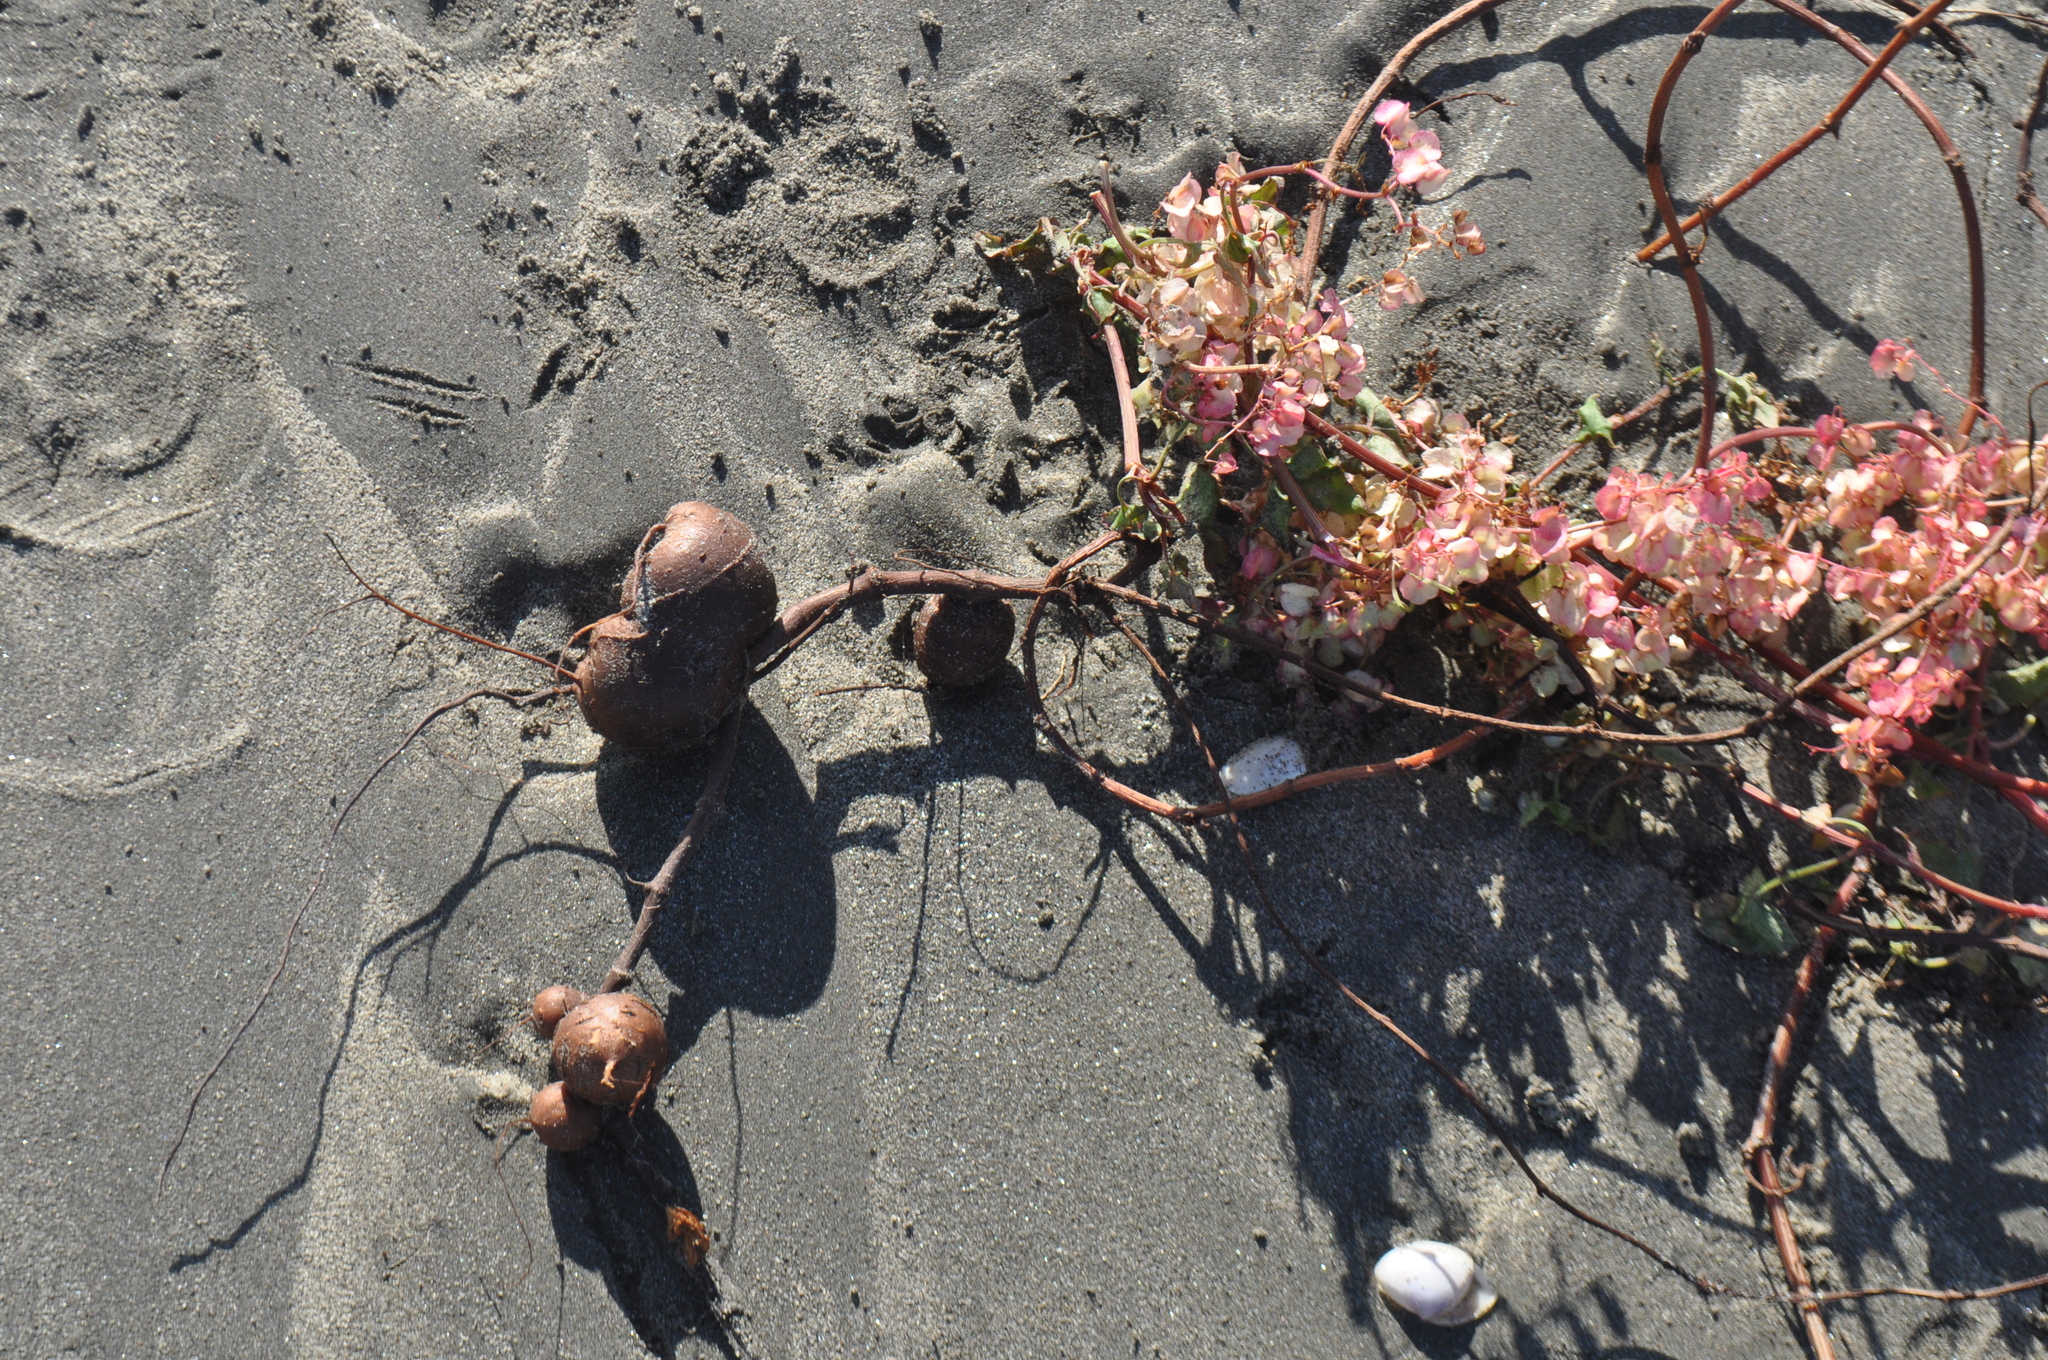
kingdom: Plantae
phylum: Tracheophyta
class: Magnoliopsida
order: Caryophyllales
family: Polygonaceae
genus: Rumex
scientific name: Rumex sagittatus
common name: Climbing dock
